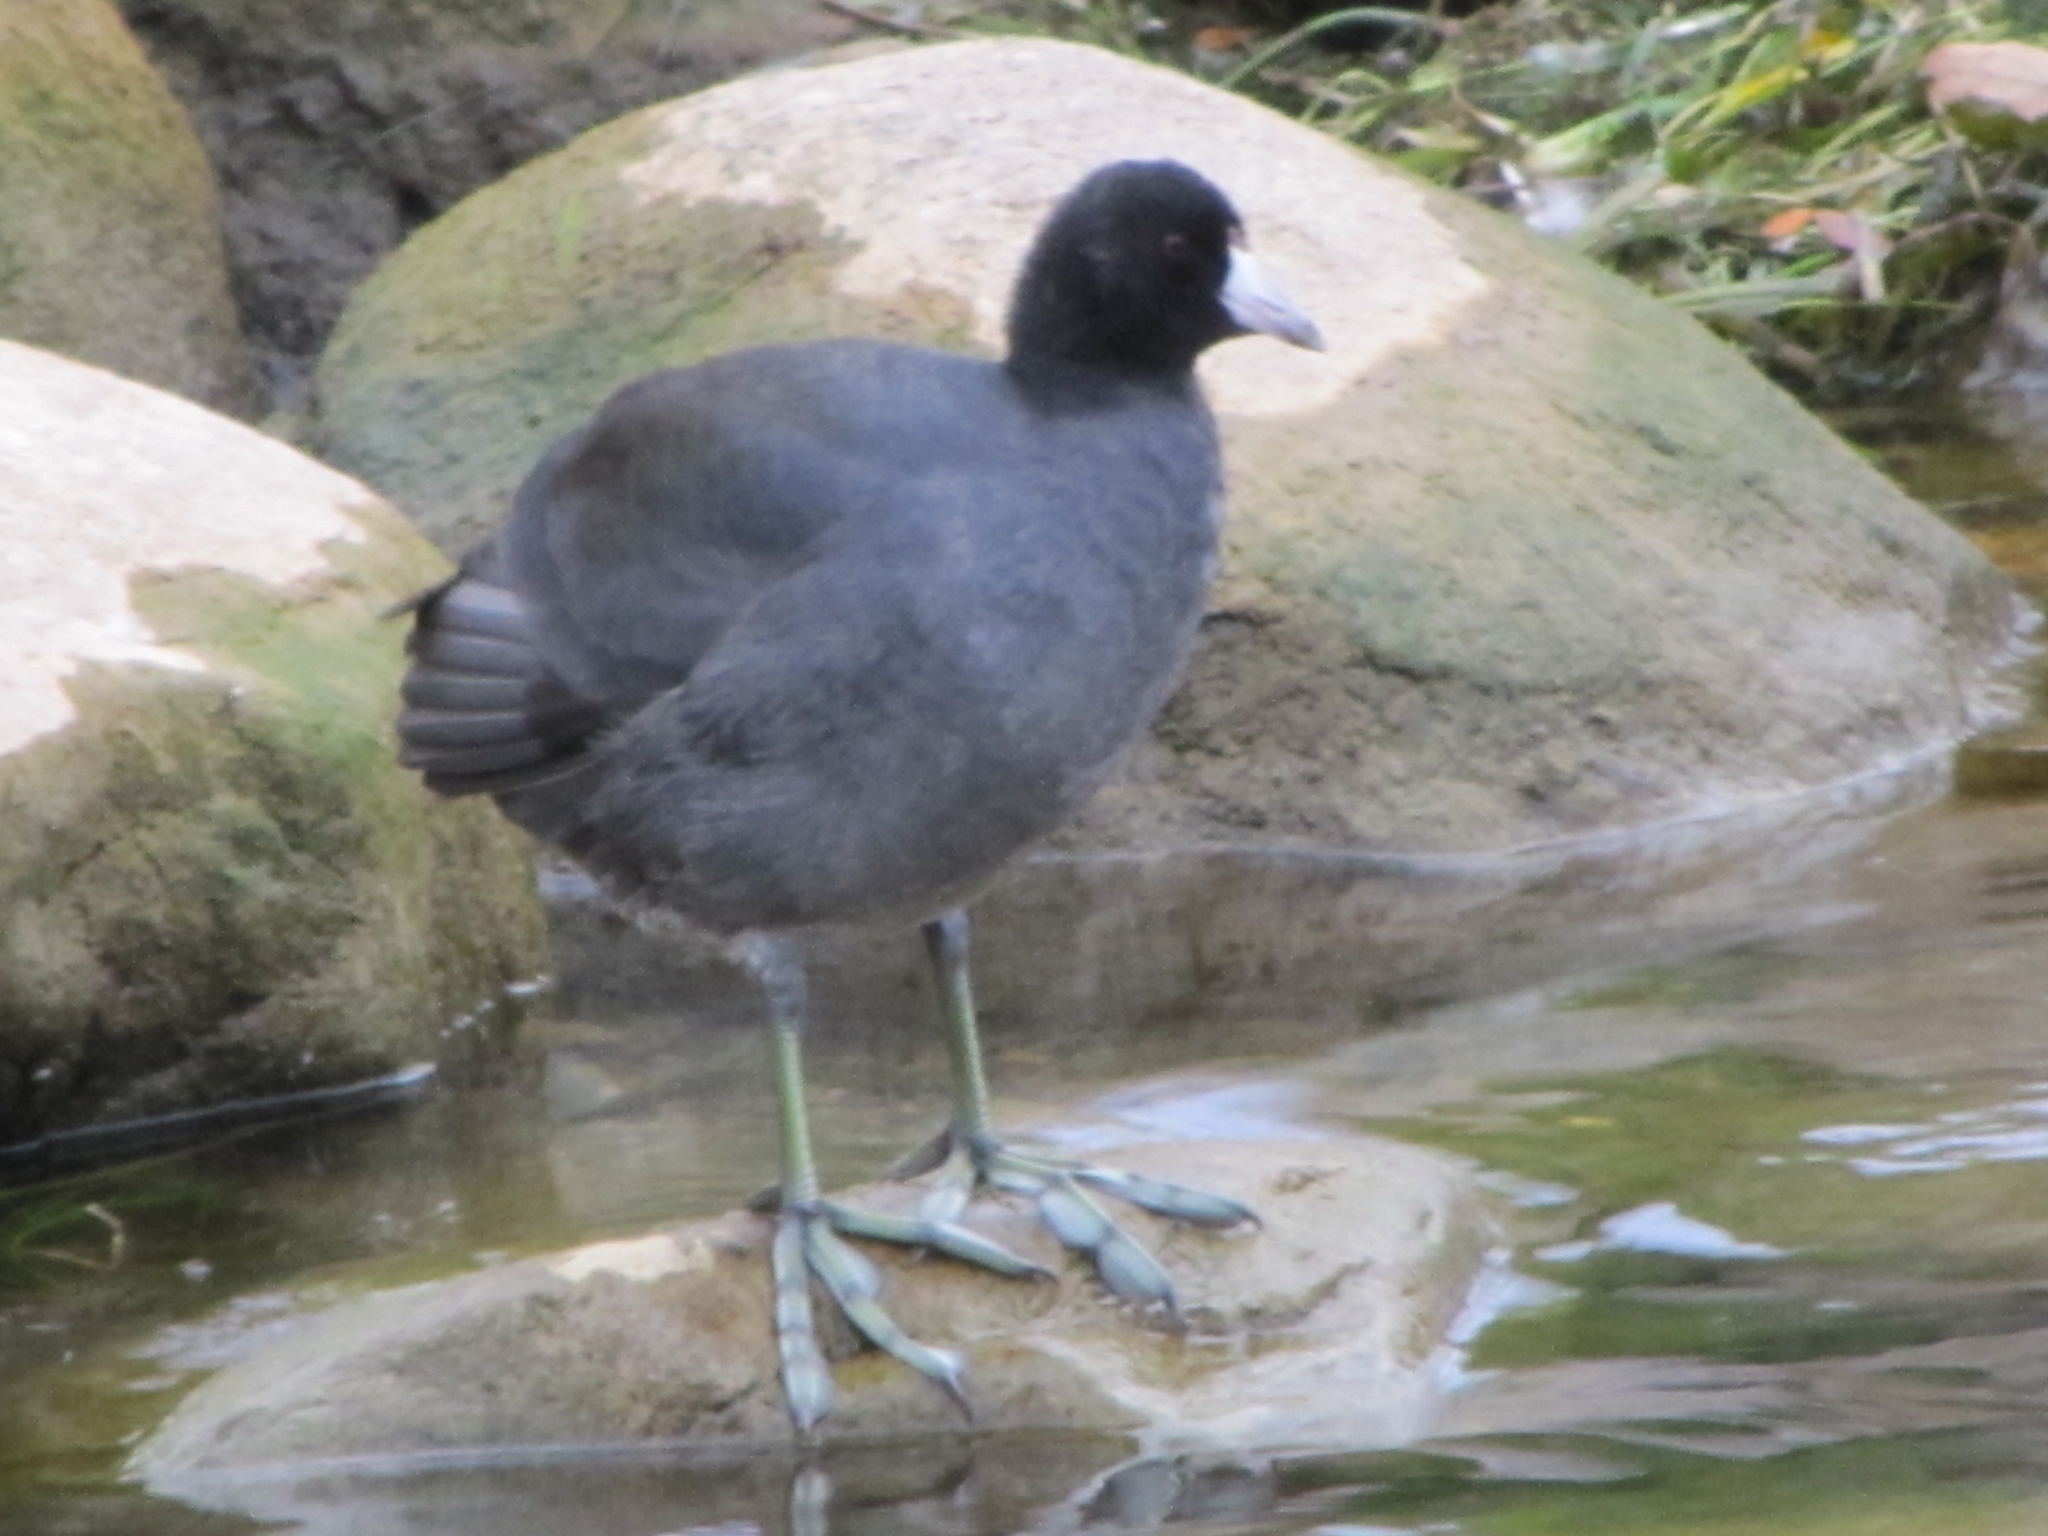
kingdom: Animalia
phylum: Chordata
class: Aves
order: Gruiformes
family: Rallidae
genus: Fulica
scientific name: Fulica americana
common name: American coot
